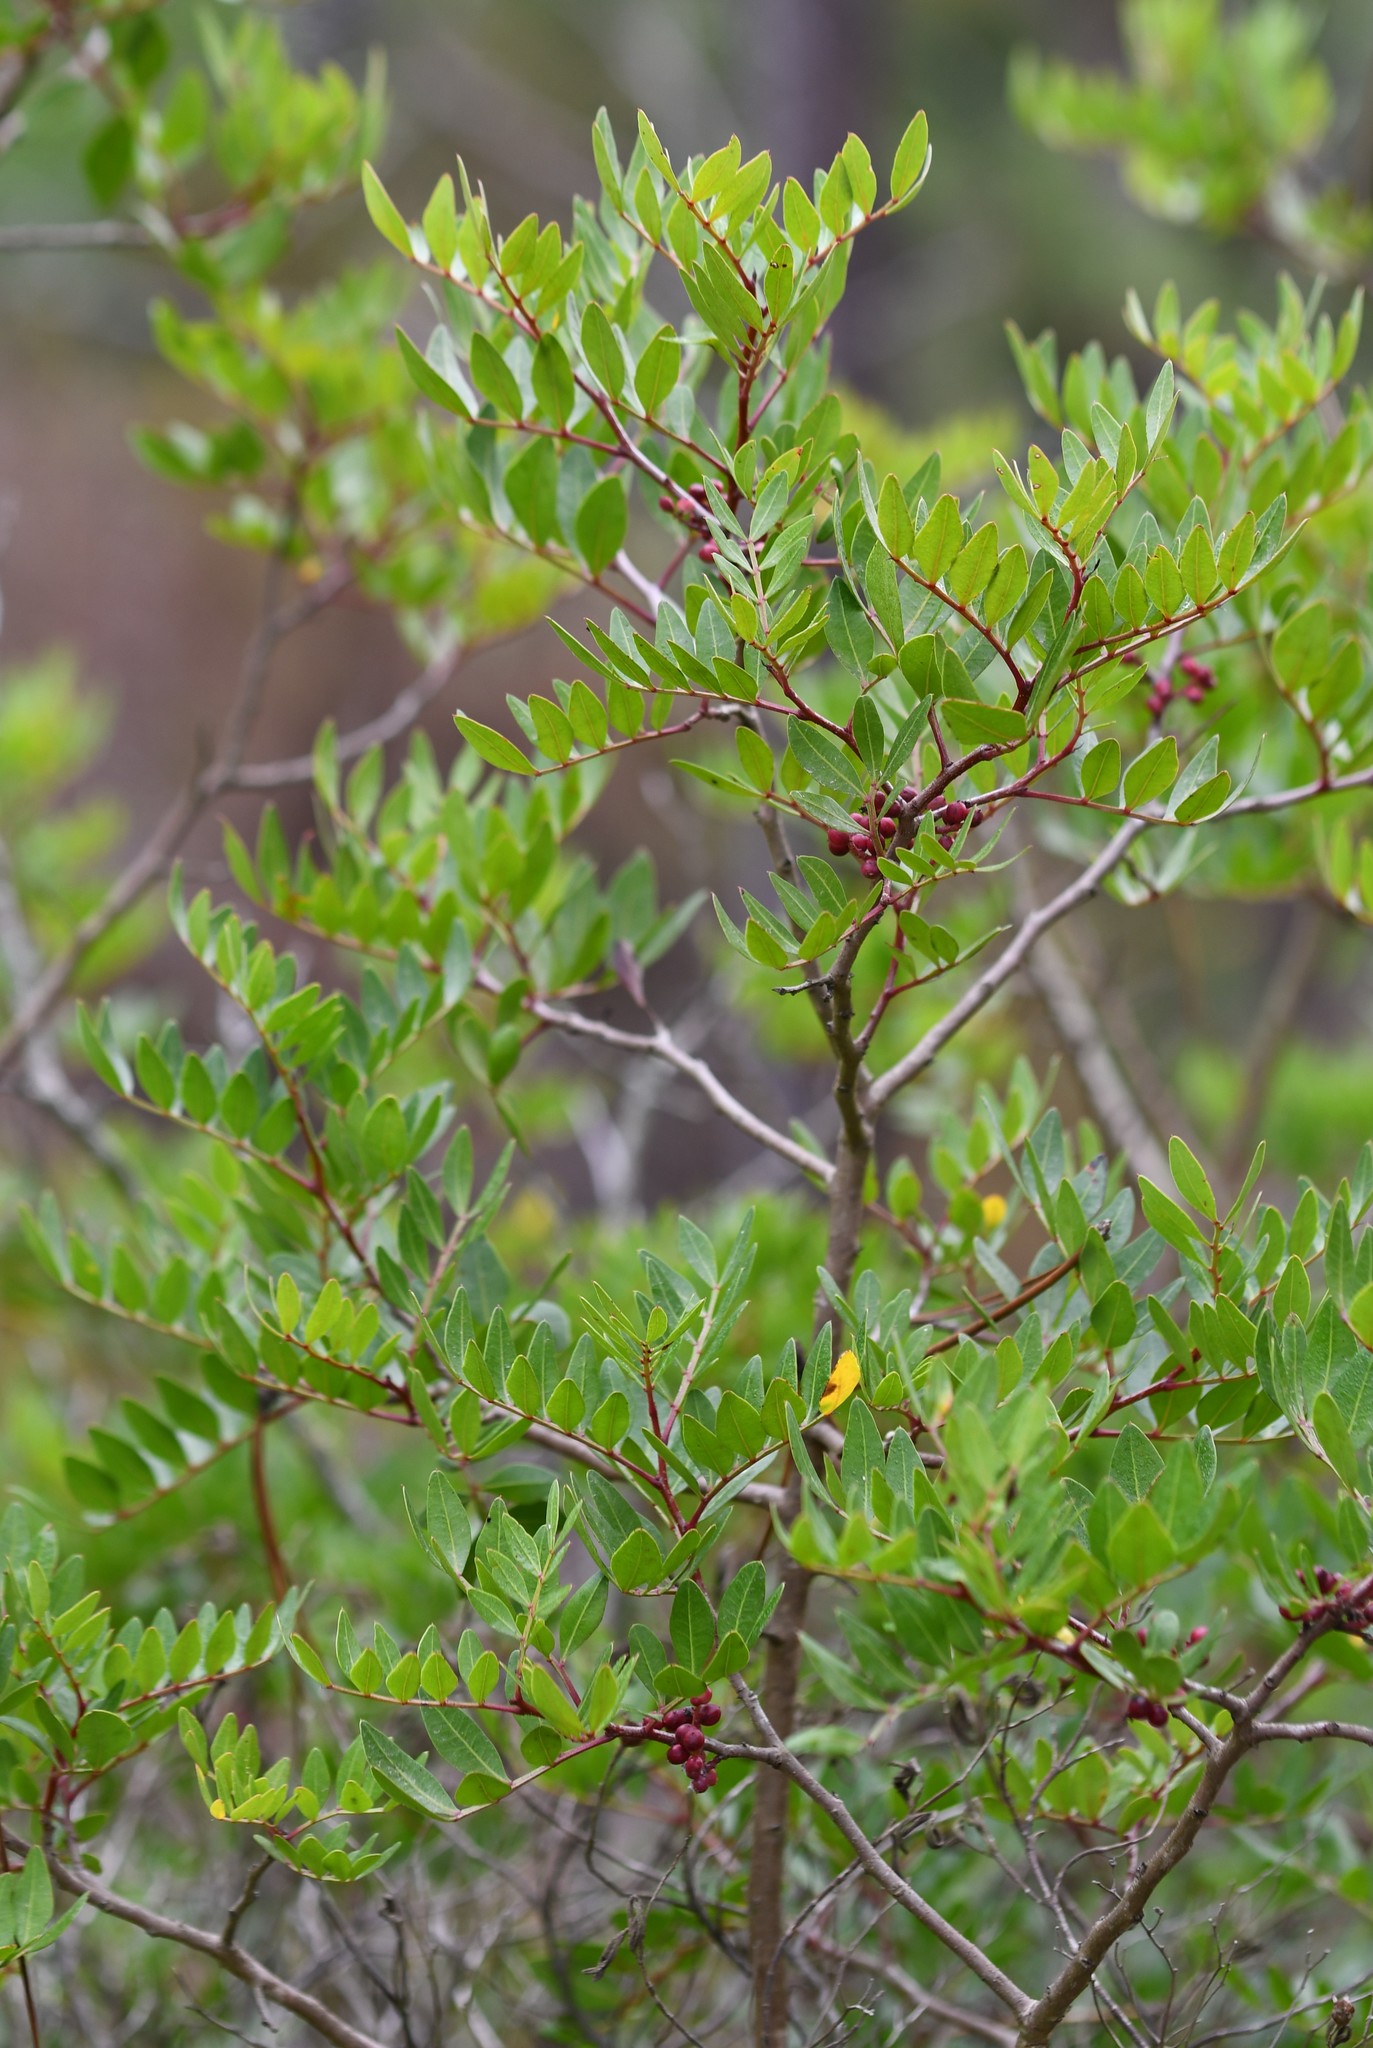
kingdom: Plantae
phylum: Tracheophyta
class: Magnoliopsida
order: Sapindales
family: Anacardiaceae
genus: Pistacia
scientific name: Pistacia lentiscus
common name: Lentisk
